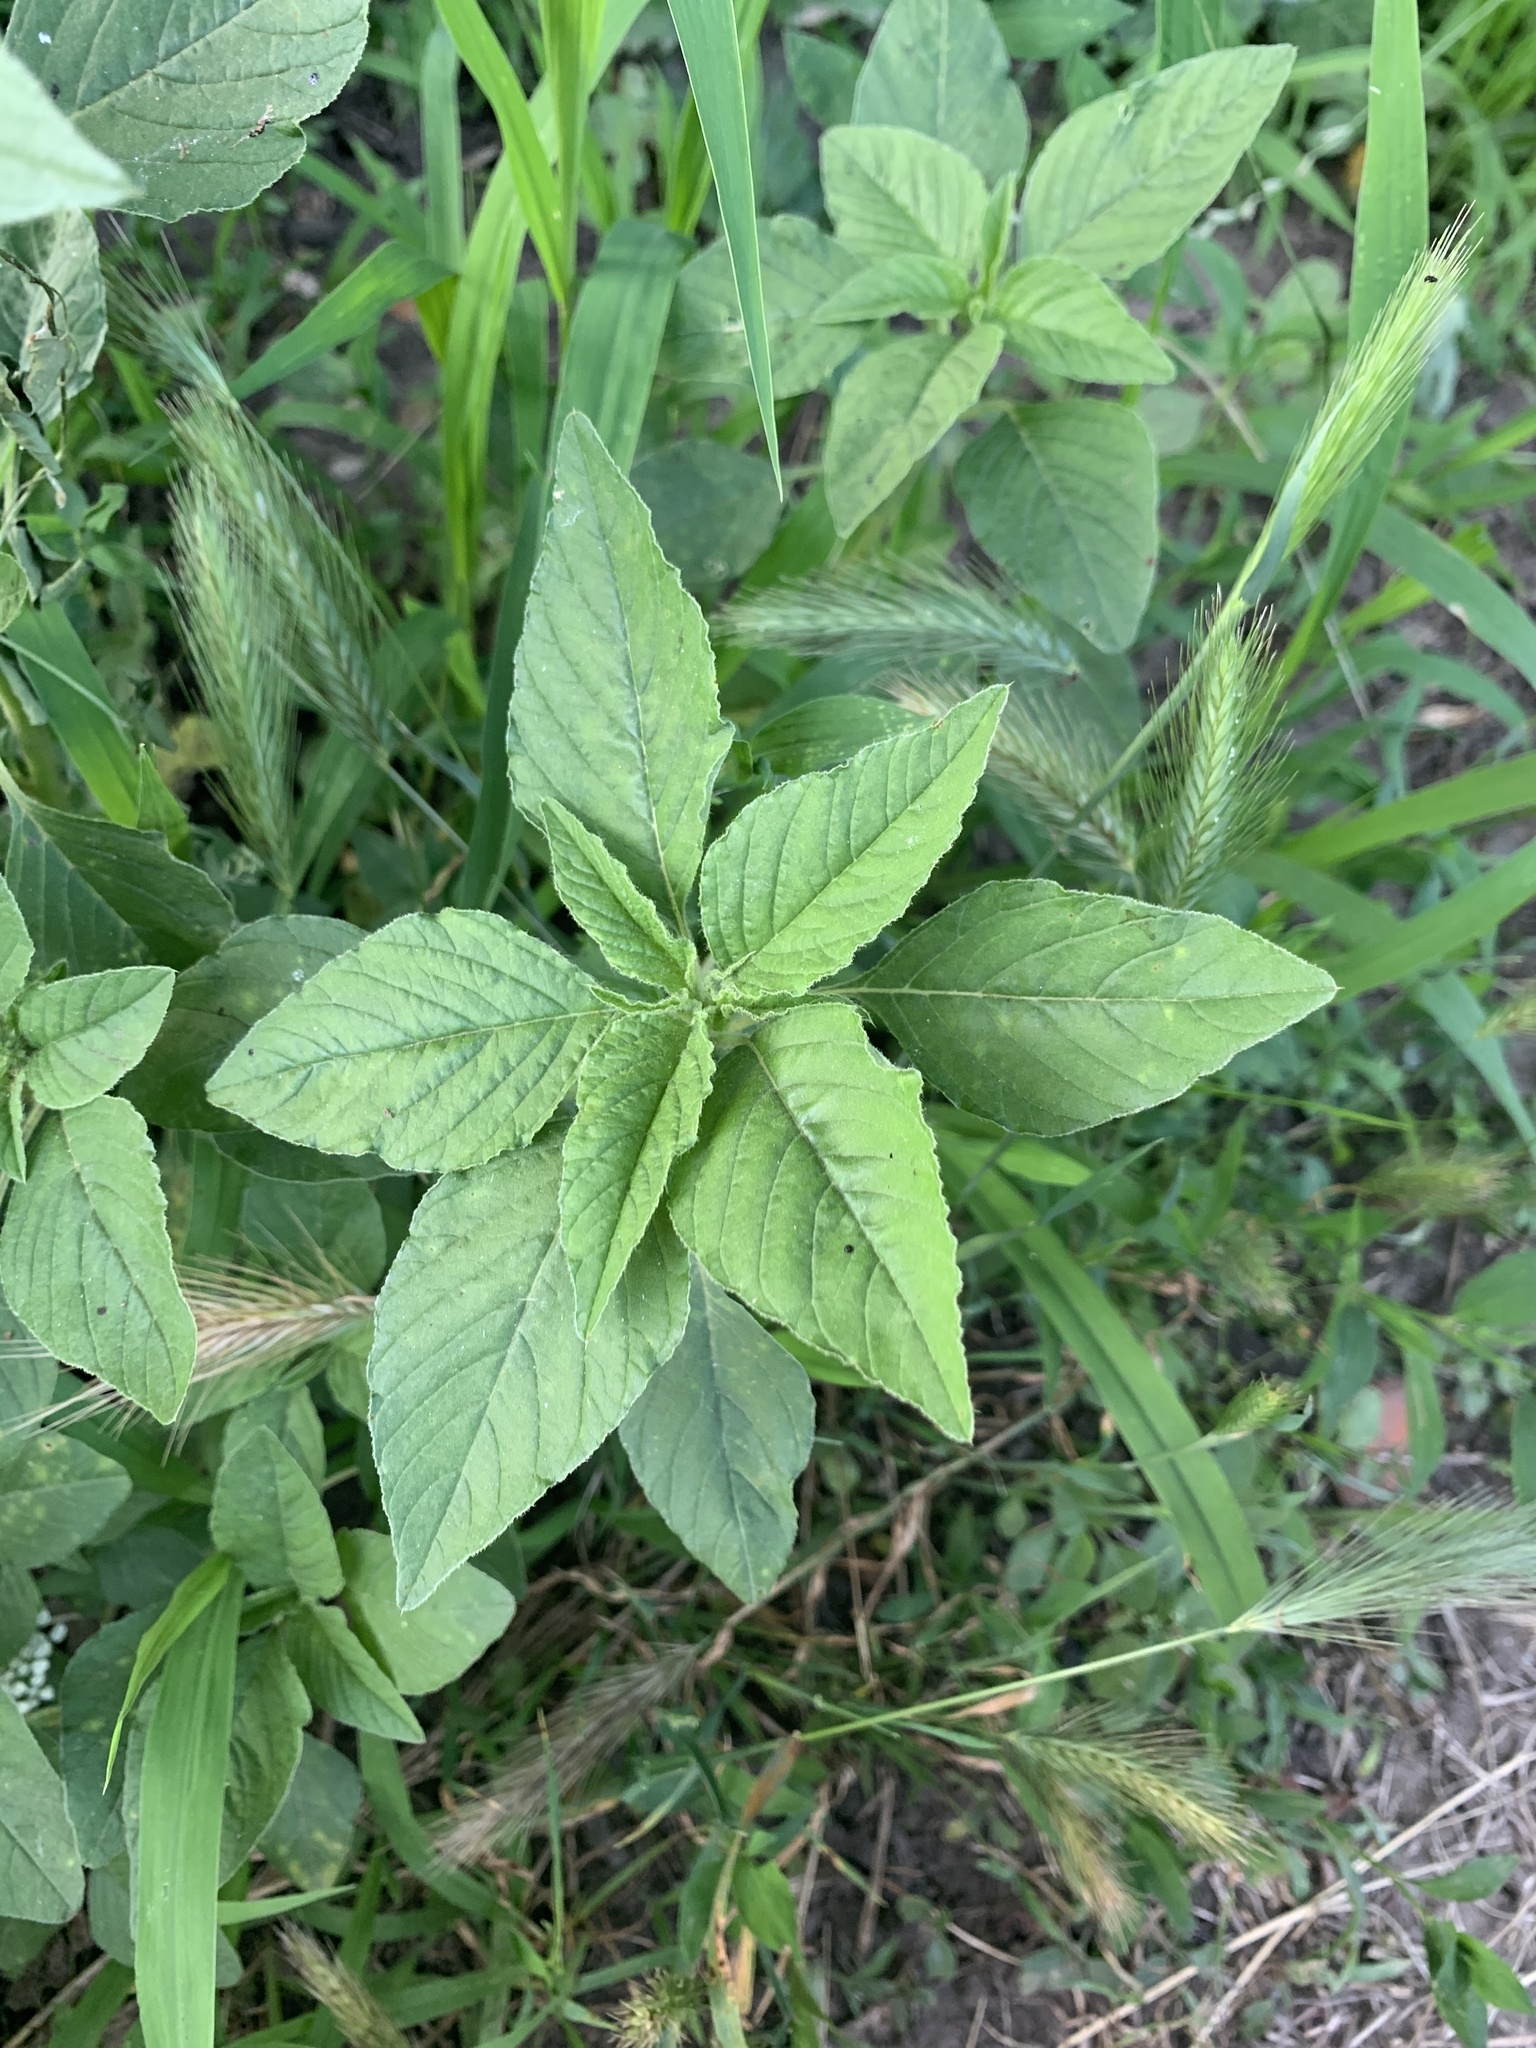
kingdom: Plantae
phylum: Tracheophyta
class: Magnoliopsida
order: Caryophyllales
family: Amaranthaceae
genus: Amaranthus
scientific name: Amaranthus retroflexus
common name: Redroot amaranth
